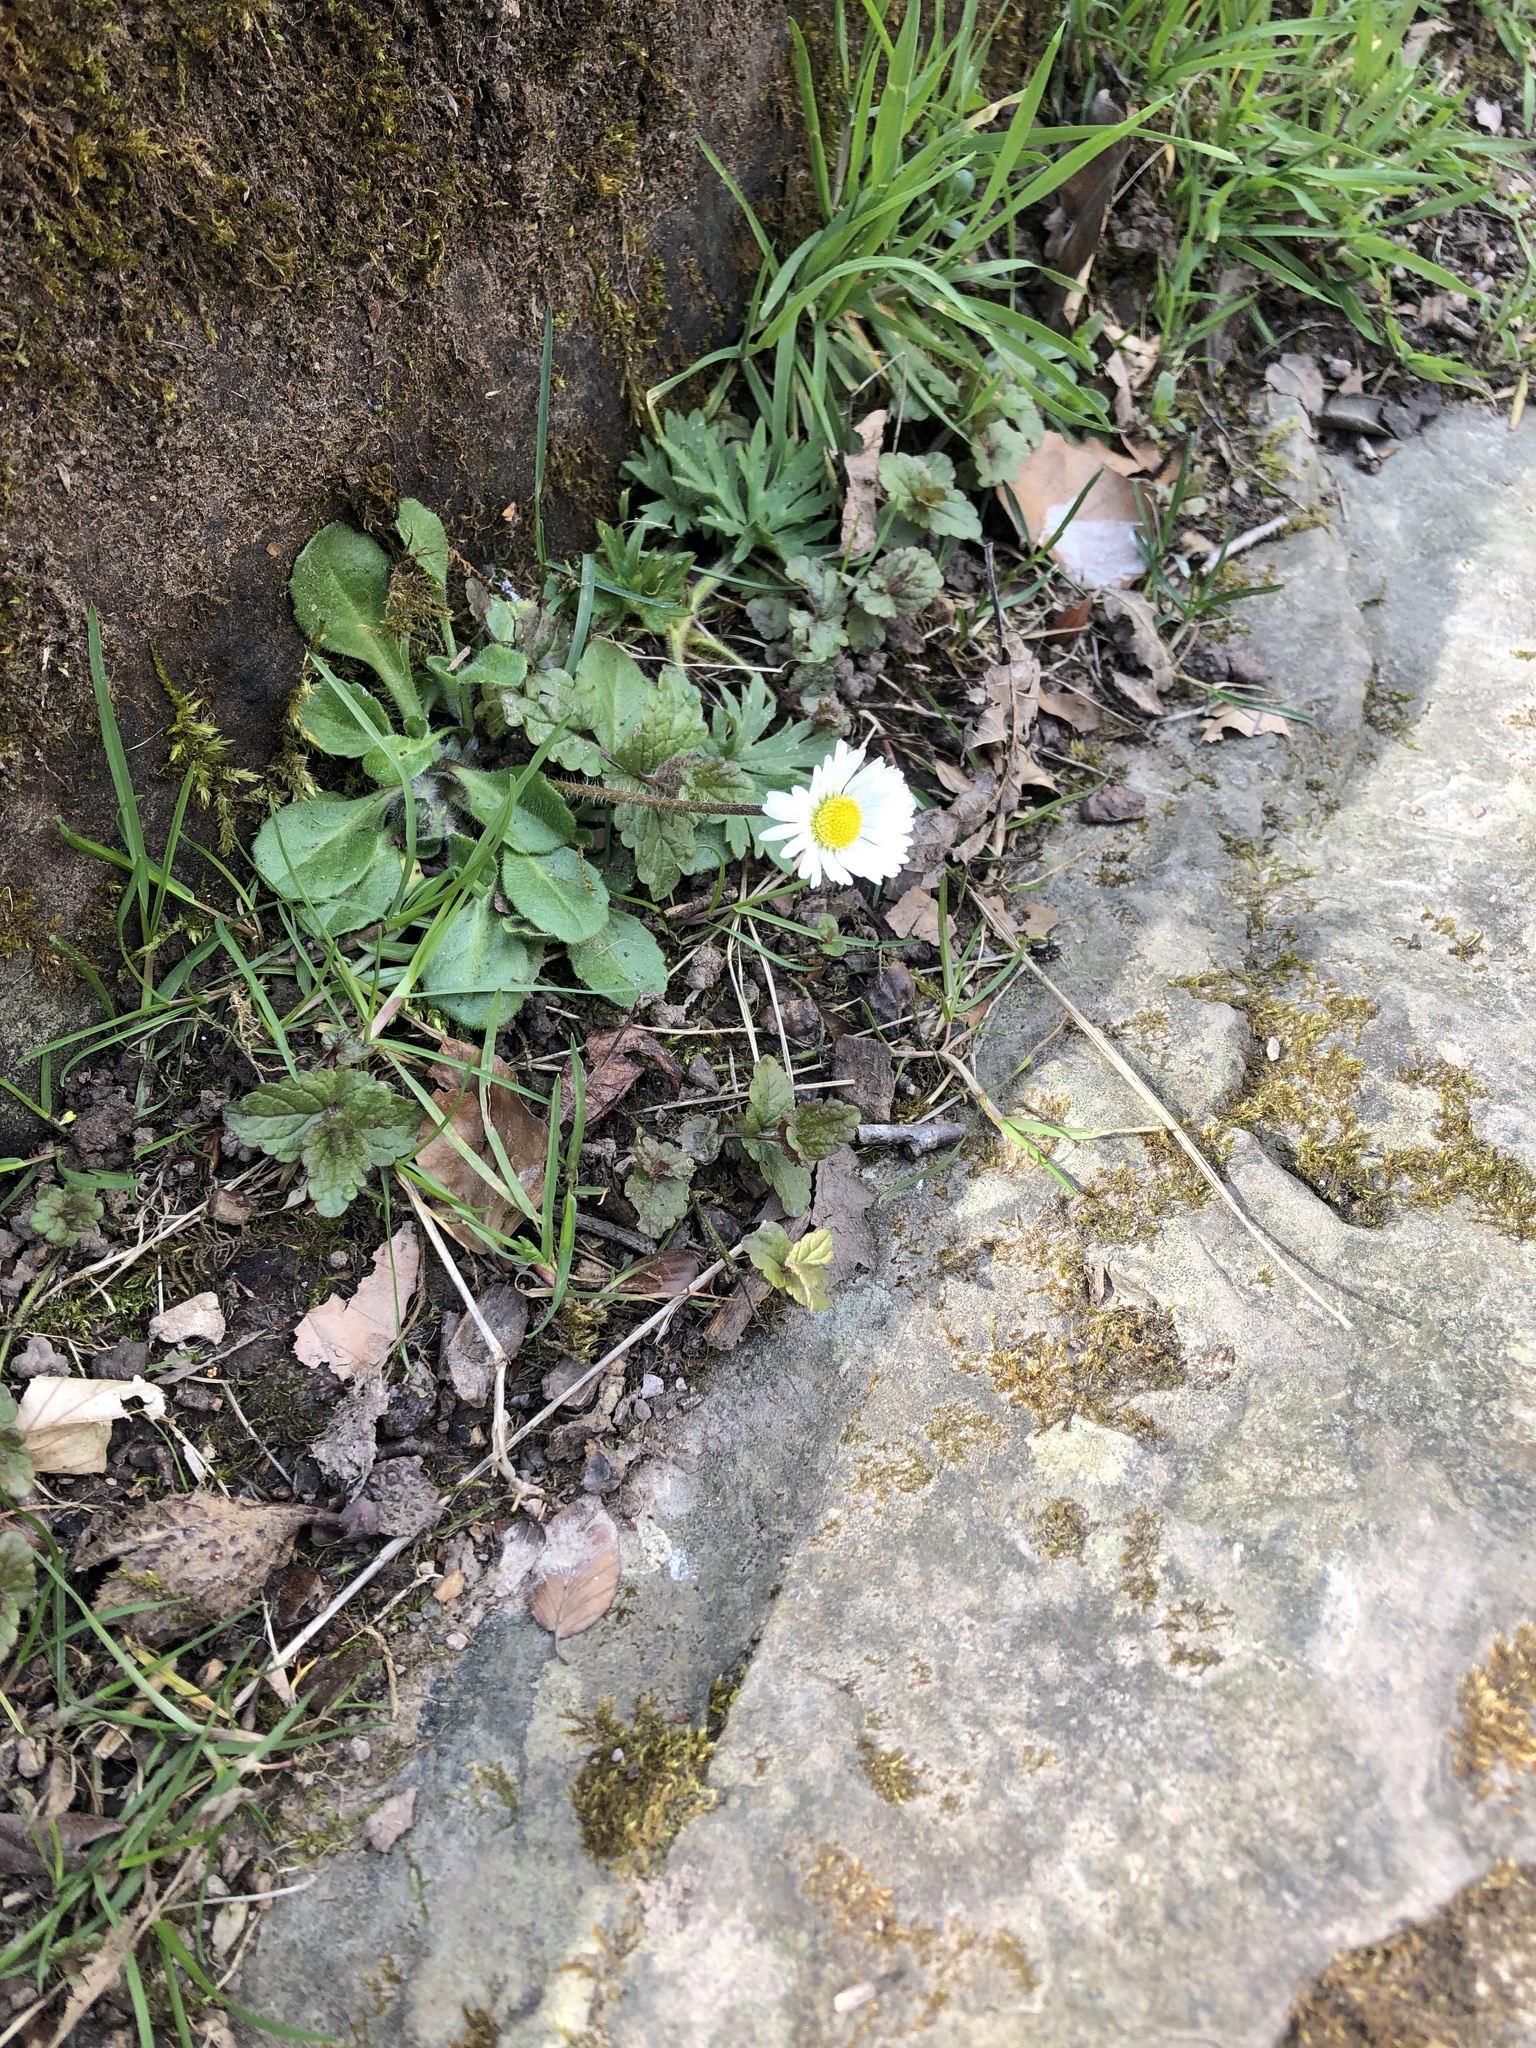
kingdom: Plantae
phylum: Tracheophyta
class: Magnoliopsida
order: Asterales
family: Asteraceae
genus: Bellis
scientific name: Bellis perennis
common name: Lawndaisy
